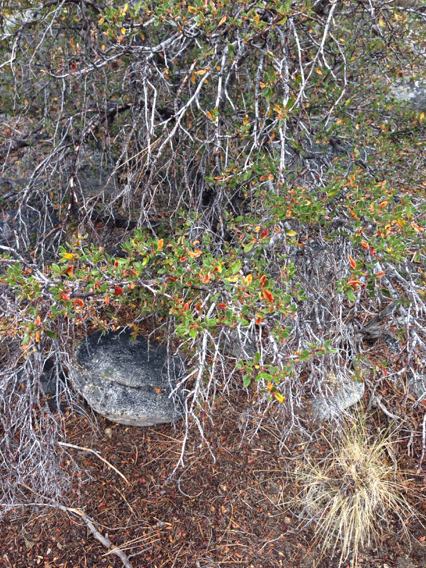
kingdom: Plantae
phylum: Tracheophyta
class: Magnoliopsida
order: Rosales
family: Rosaceae
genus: Cercocarpus
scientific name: Cercocarpus ledifolius
